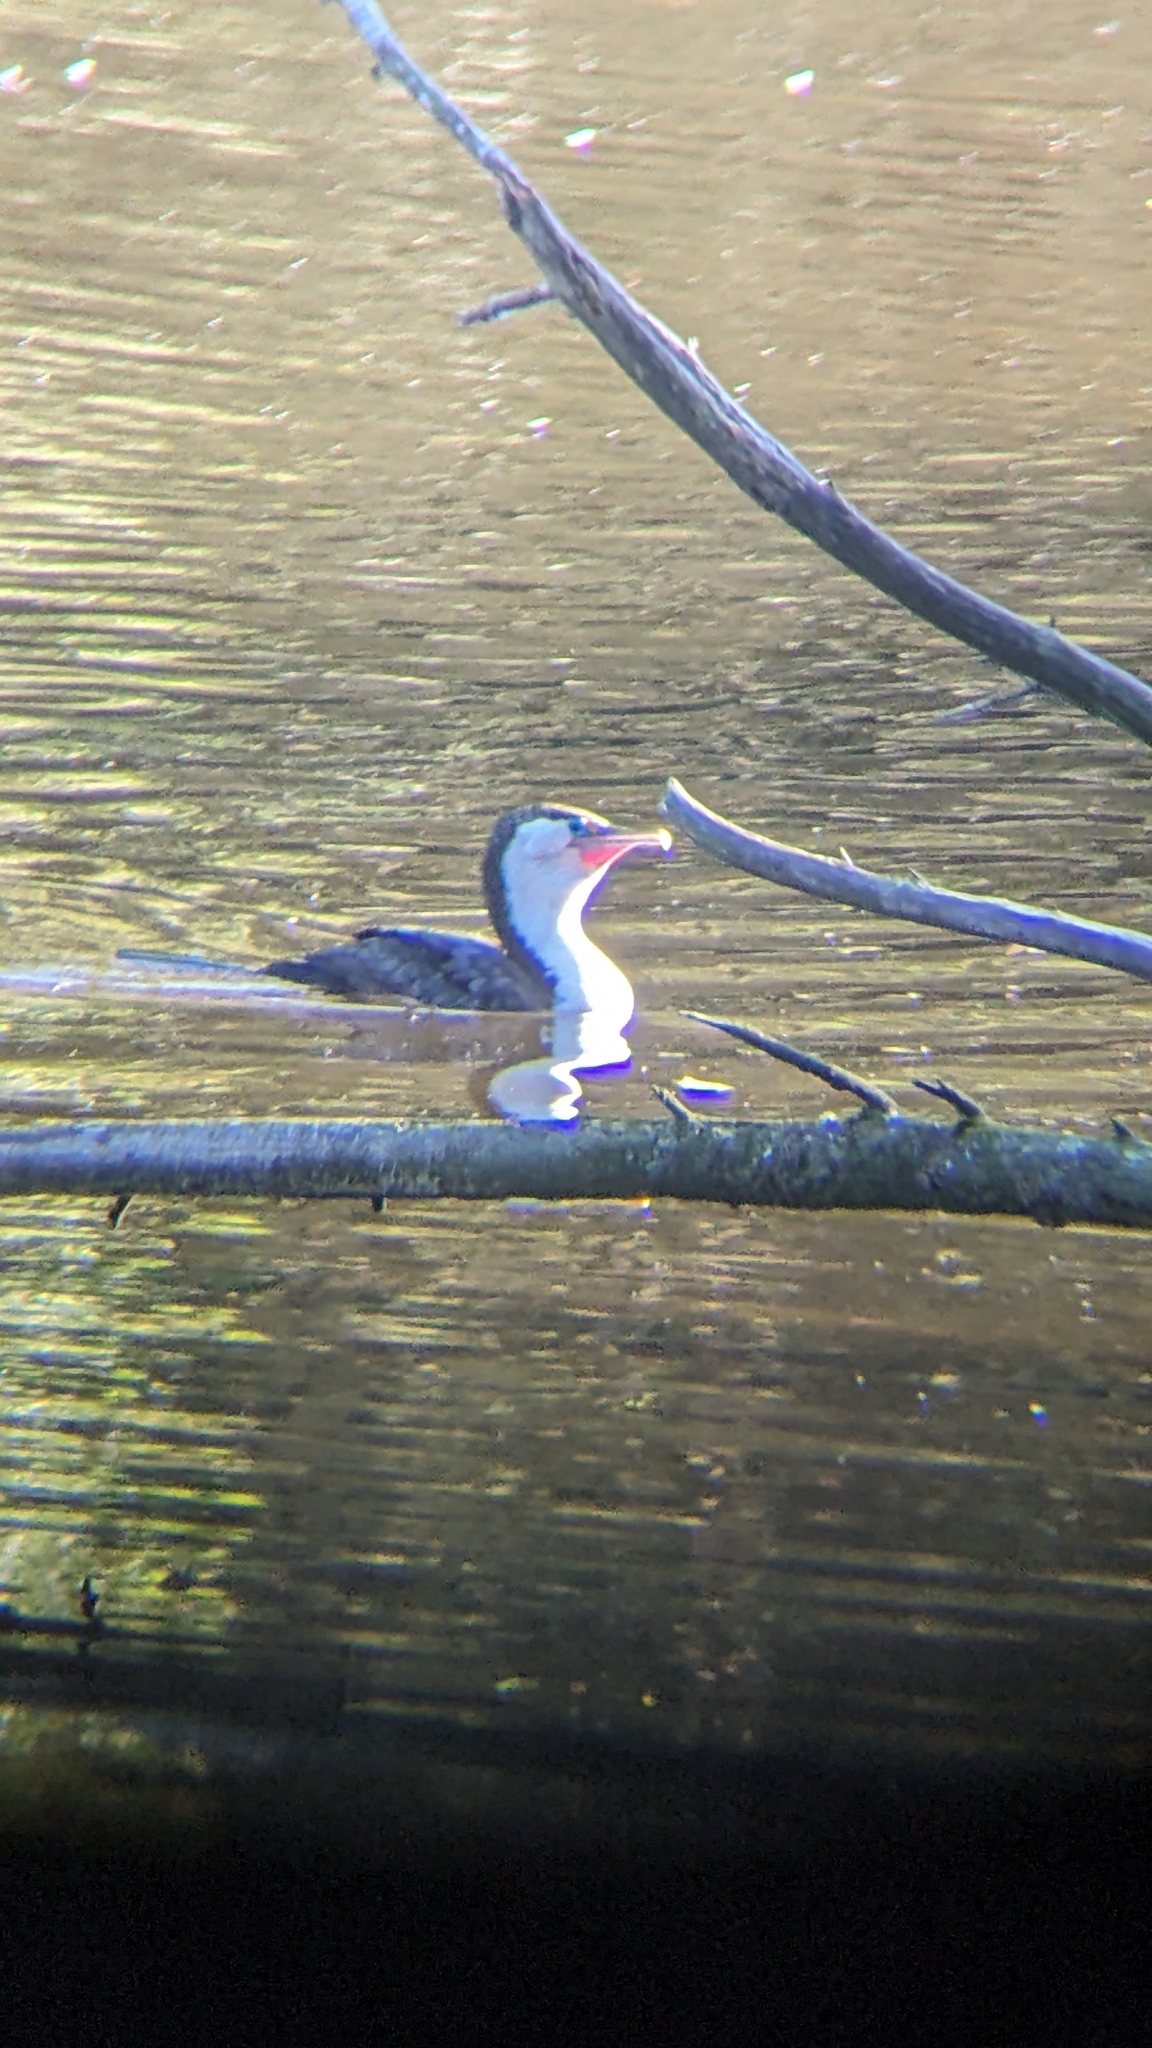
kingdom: Animalia
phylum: Chordata
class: Aves
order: Suliformes
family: Phalacrocoracidae
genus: Phalacrocorax
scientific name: Phalacrocorax varius
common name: Pied cormorant
